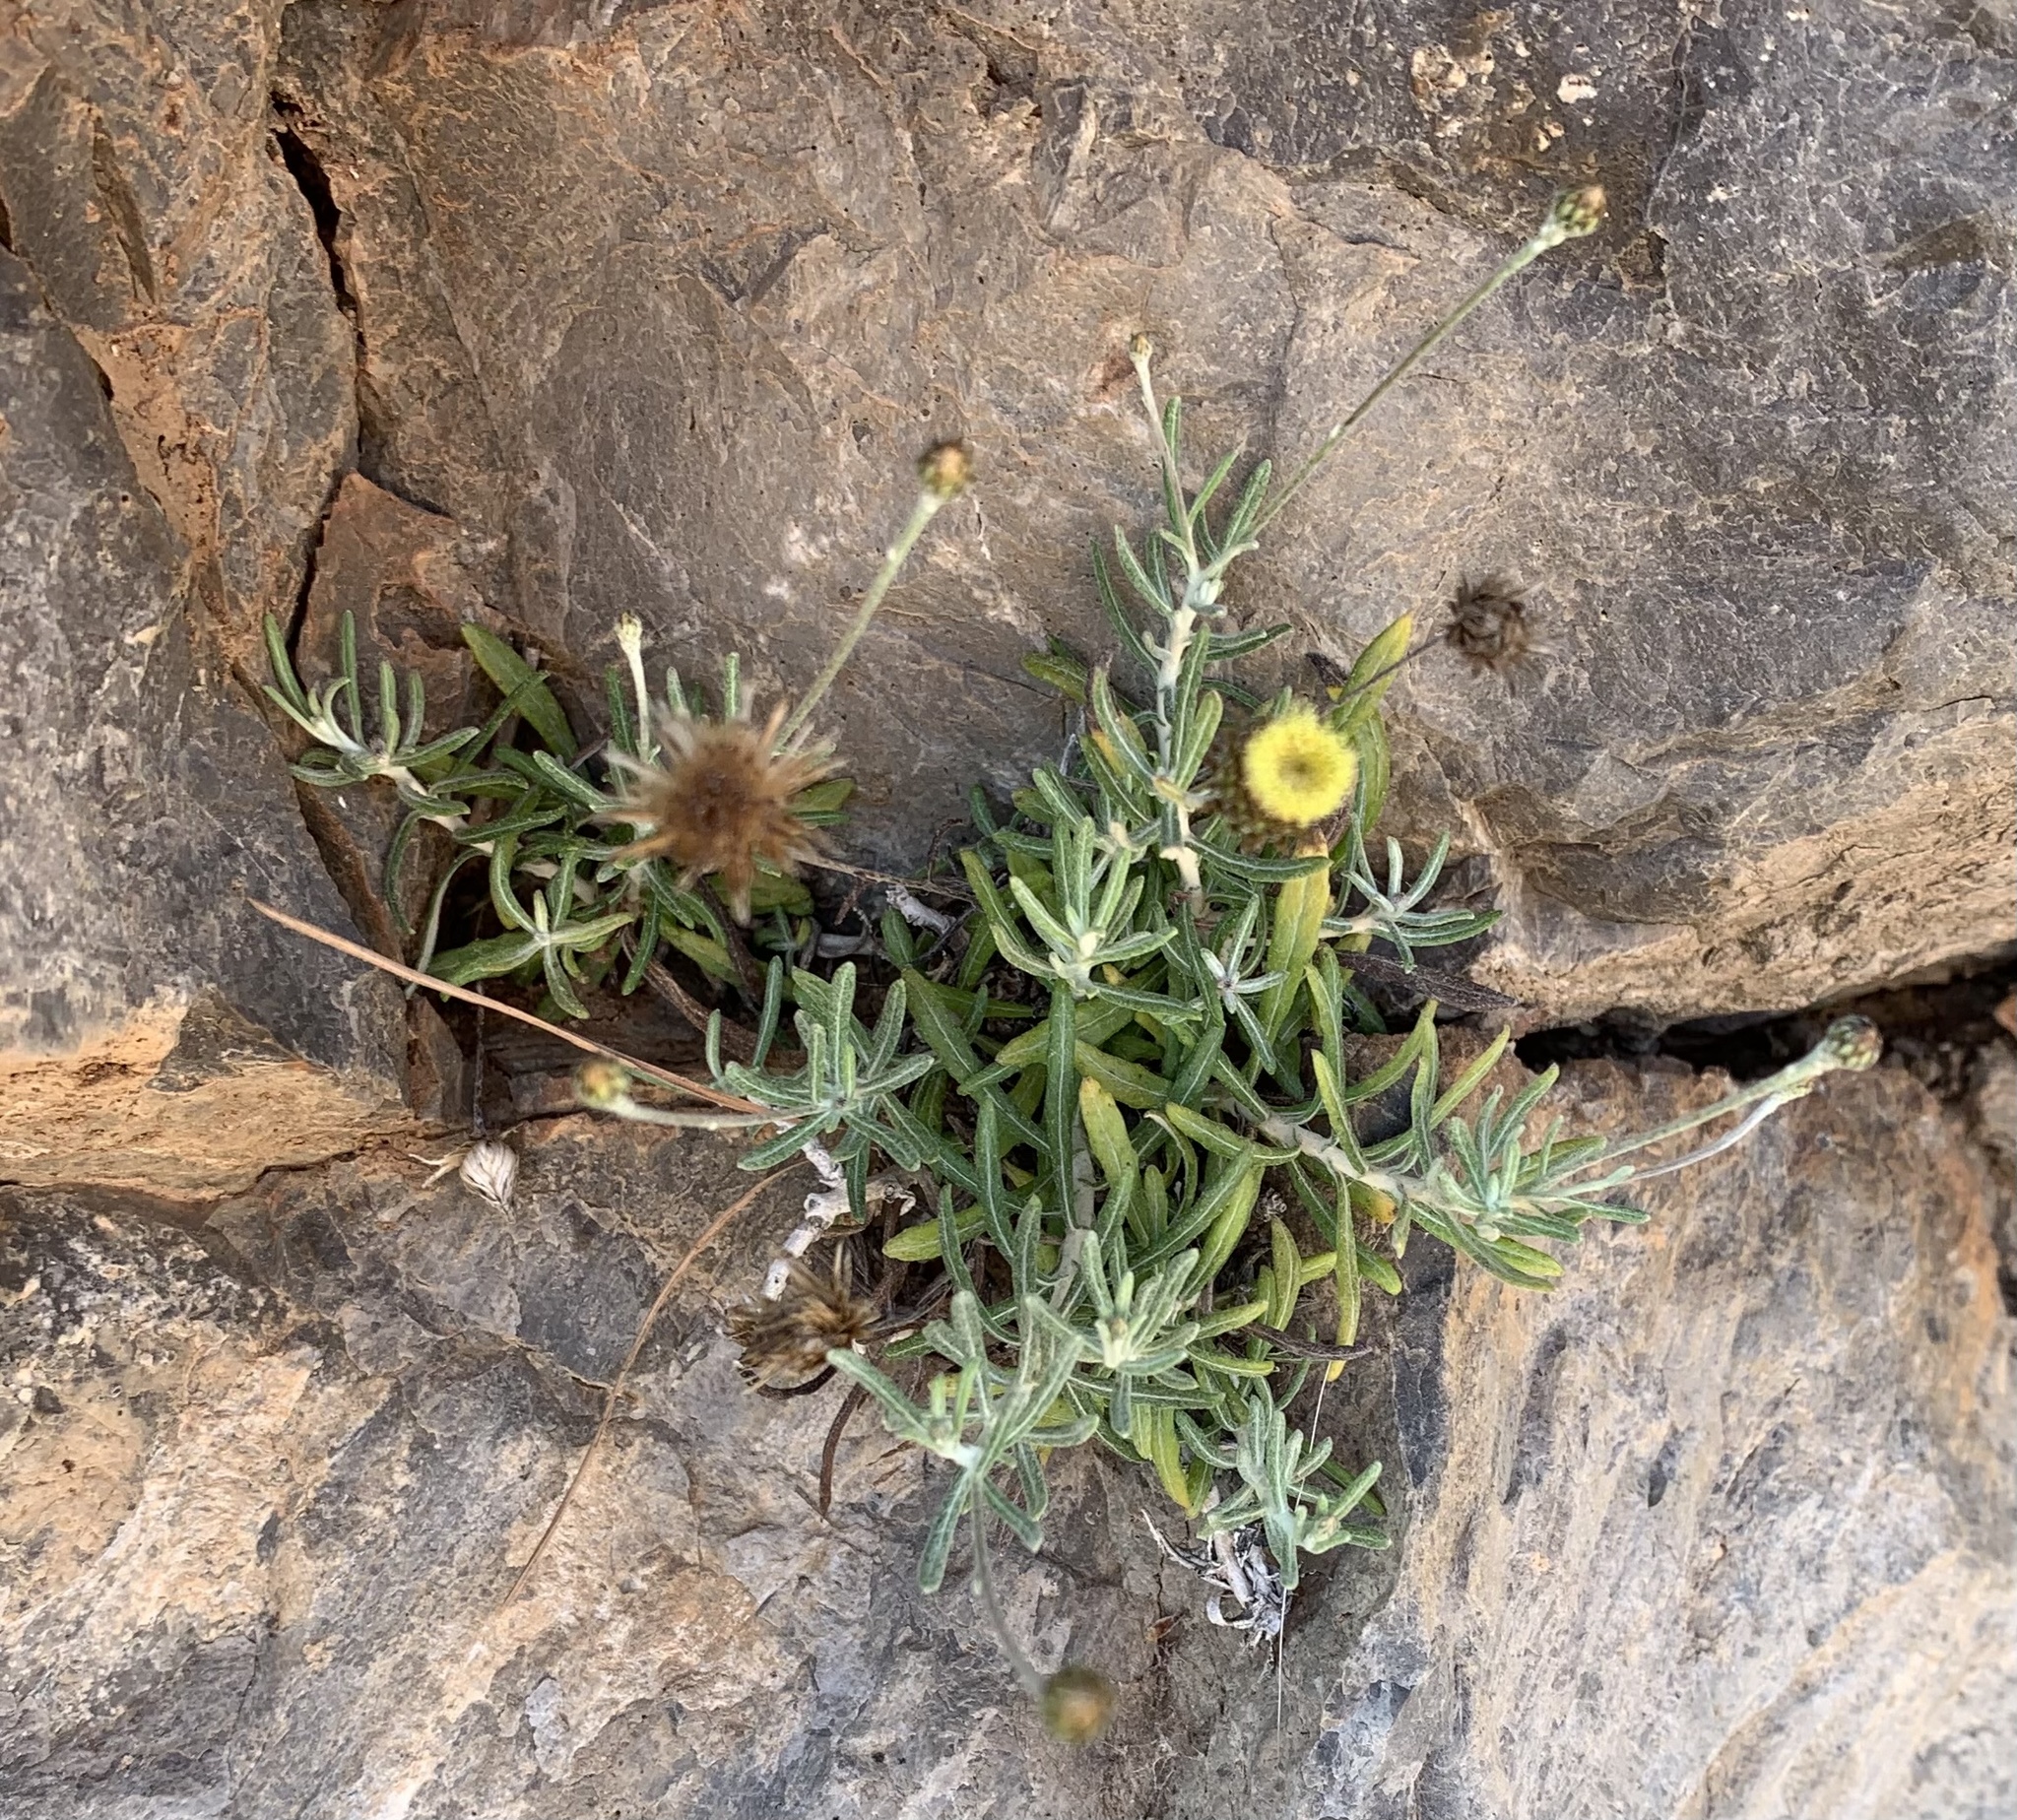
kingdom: Plantae
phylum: Tracheophyta
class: Magnoliopsida
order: Asterales
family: Asteraceae
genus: Phagnalon
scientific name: Phagnalon saxatile
